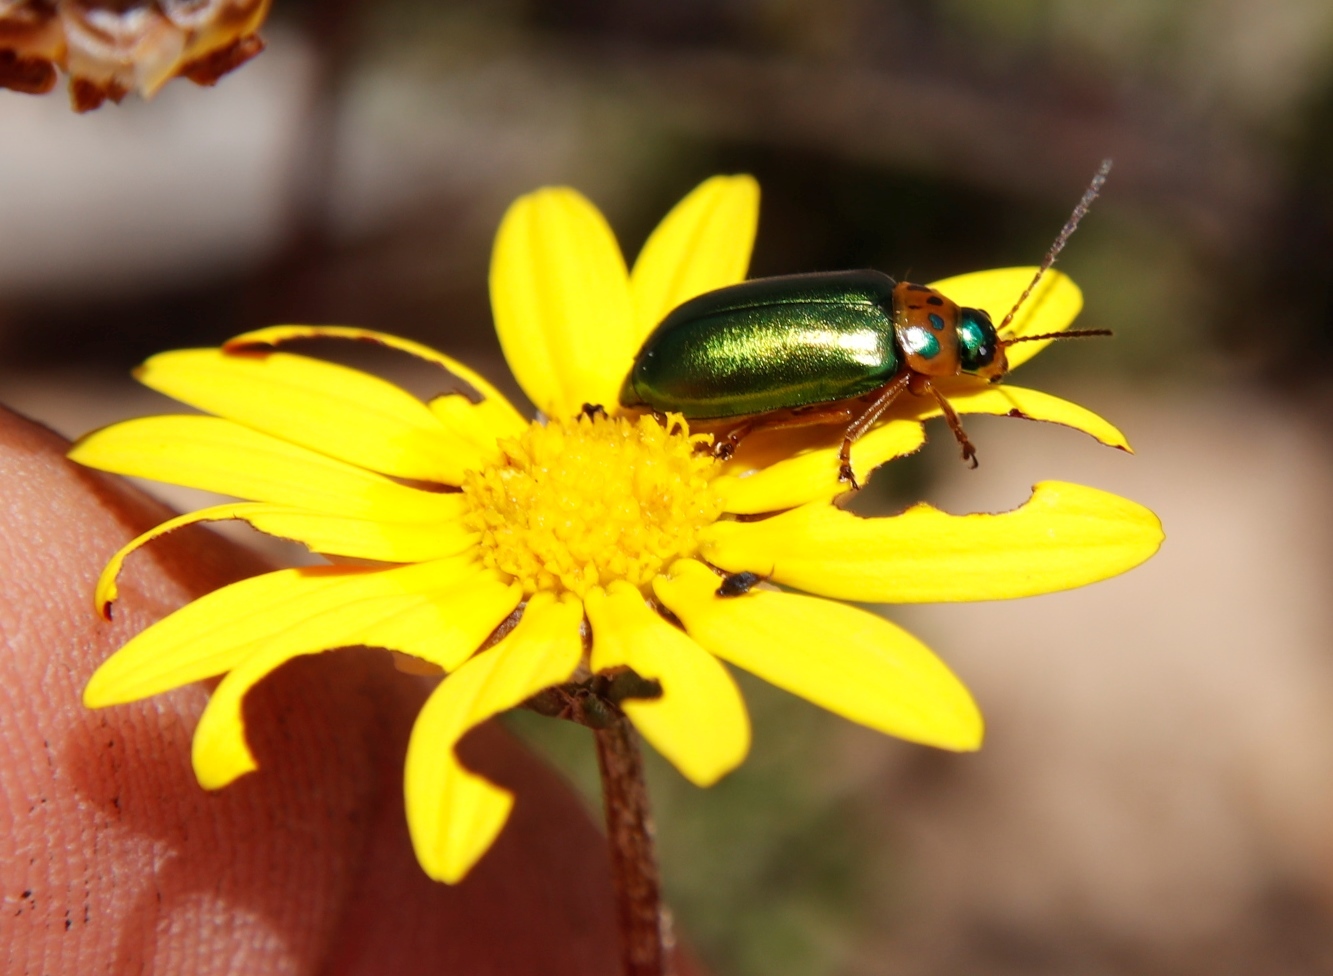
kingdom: Animalia
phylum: Arthropoda
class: Insecta
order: Coleoptera
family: Chrysomelidae
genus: Palaeophylia
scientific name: Palaeophylia
